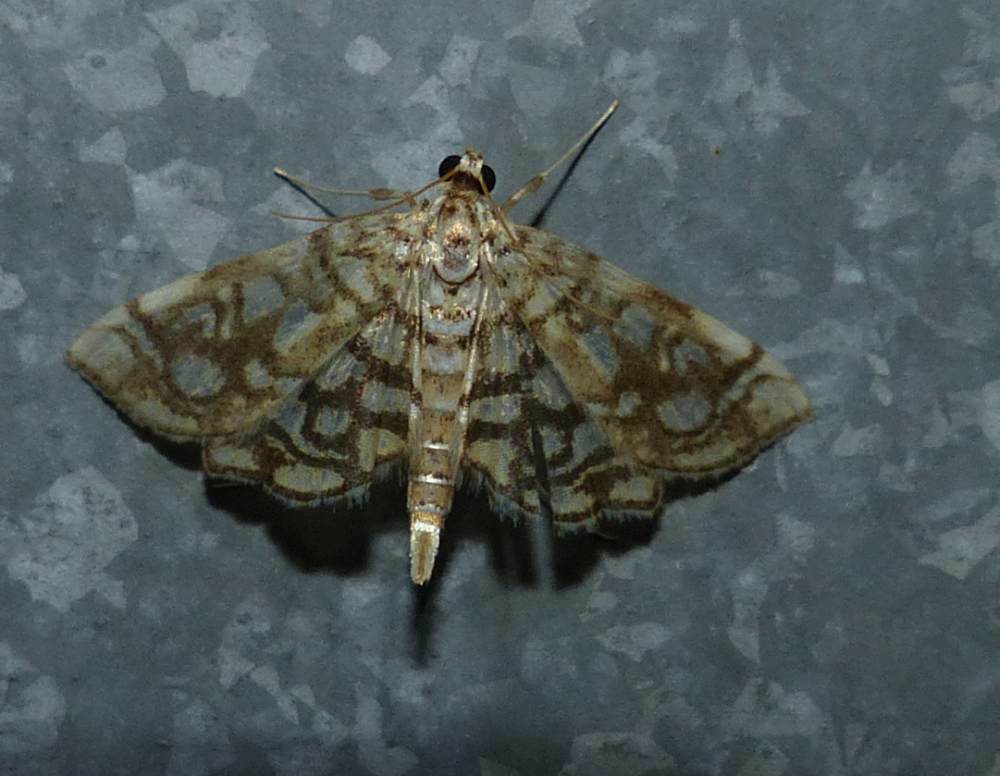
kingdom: Animalia
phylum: Arthropoda
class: Insecta
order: Lepidoptera
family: Crambidae
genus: Lygropia
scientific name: Lygropia rivulalis
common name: Bog lygropia moth
